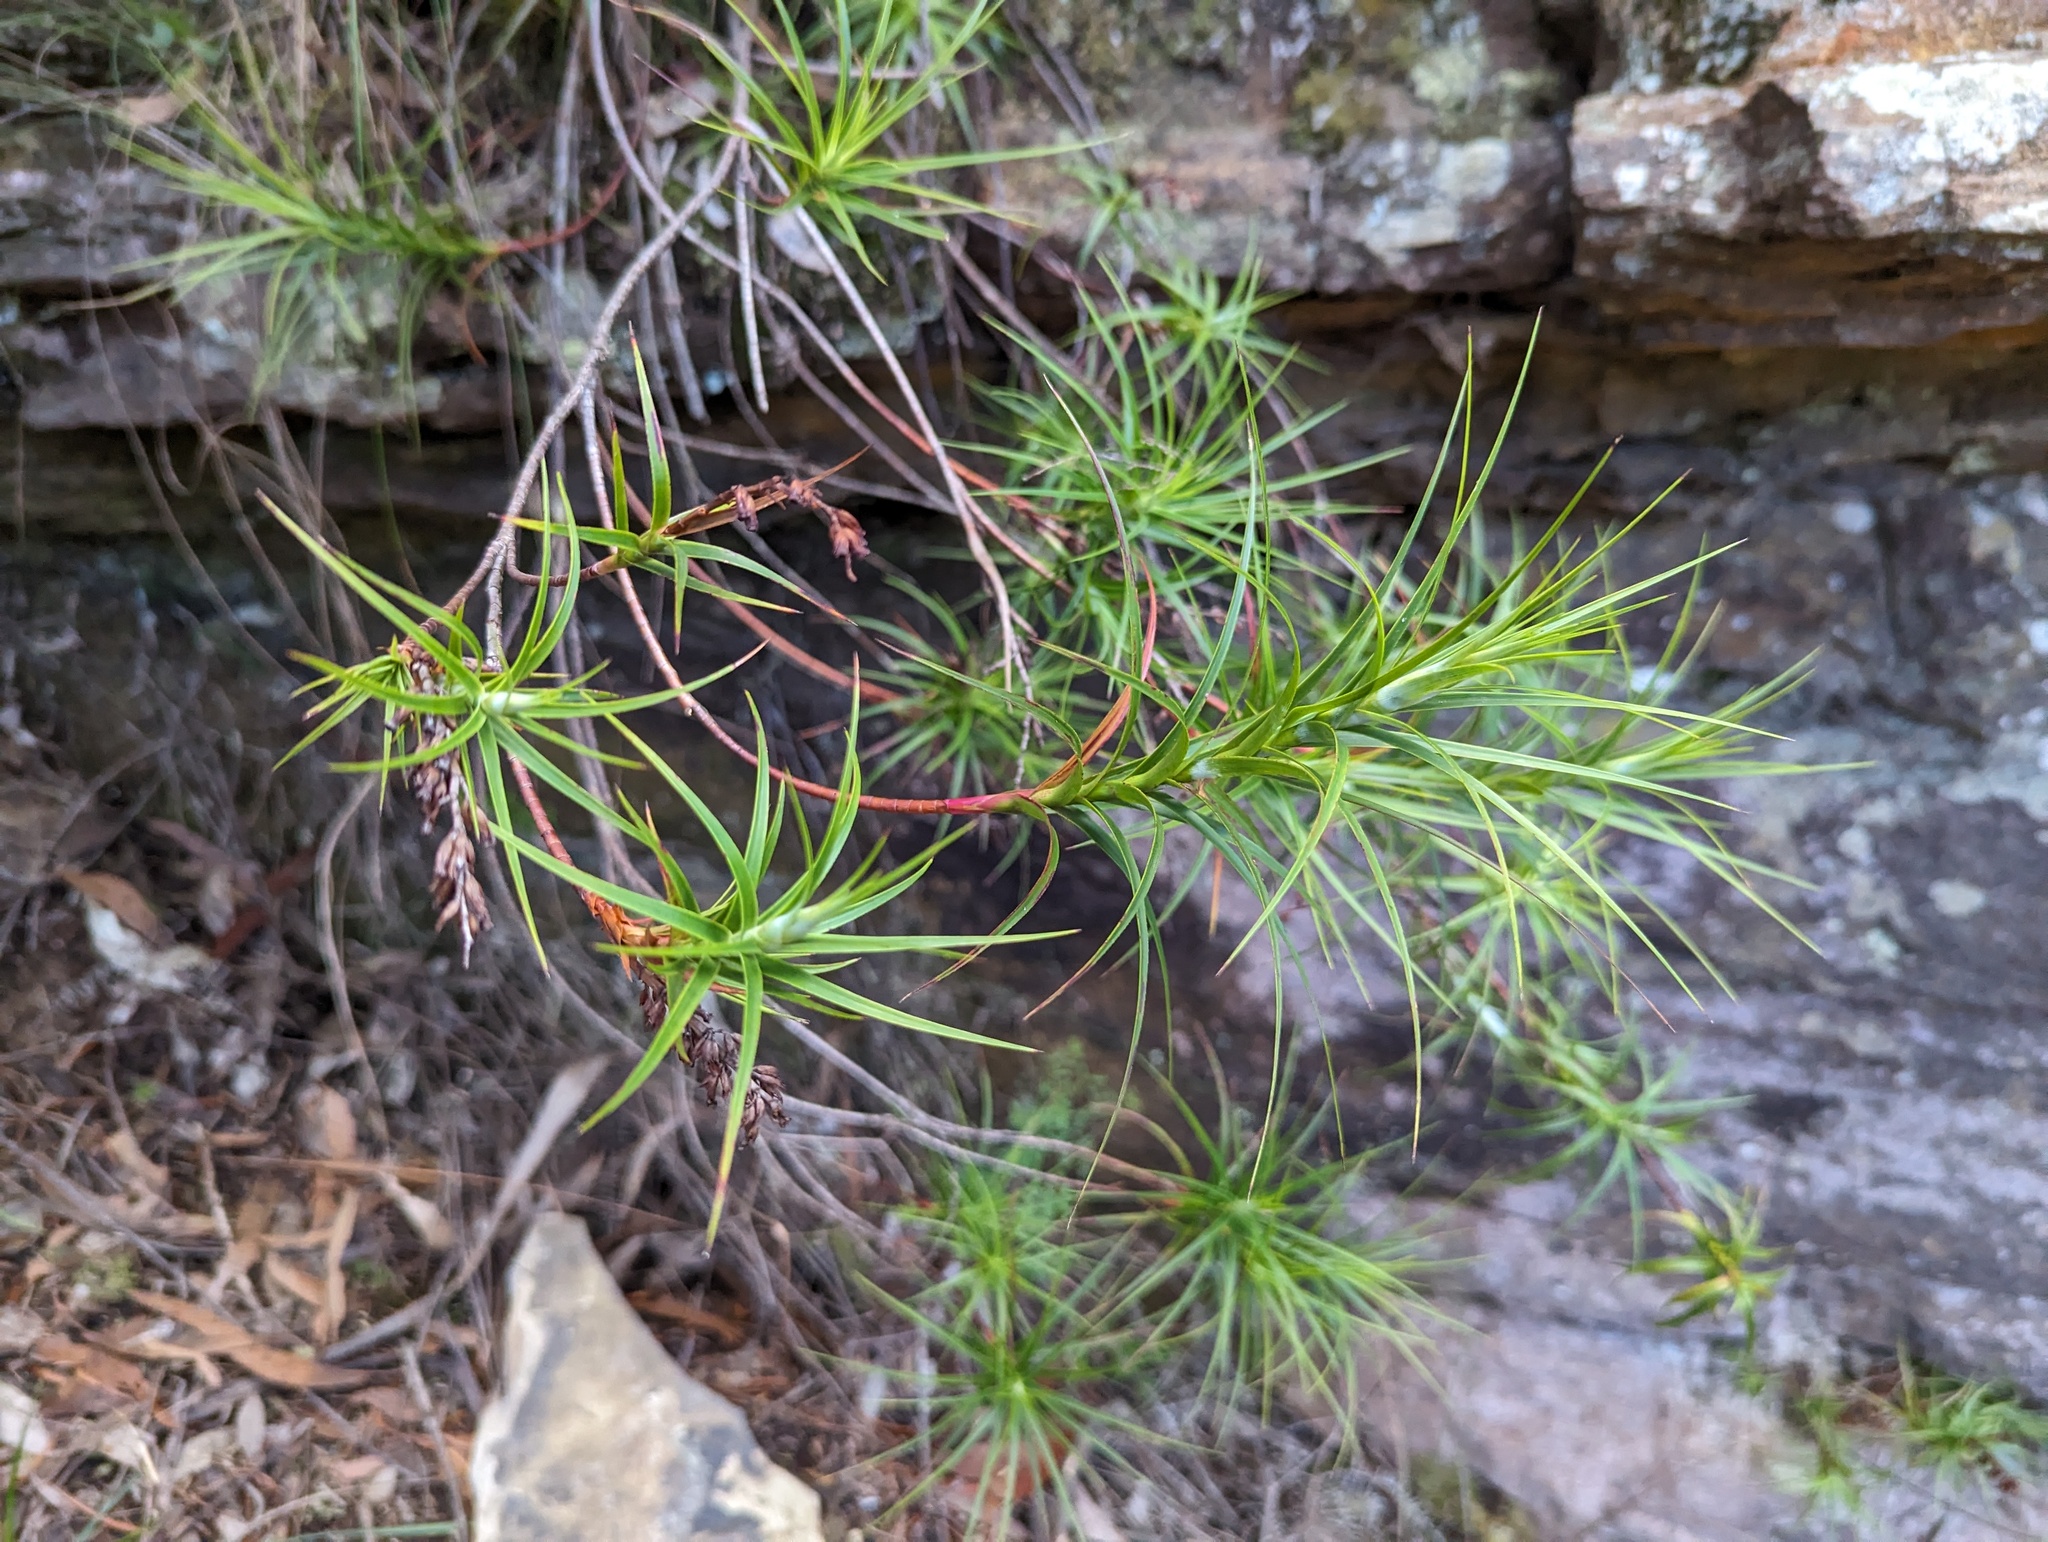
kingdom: Plantae
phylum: Tracheophyta
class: Magnoliopsida
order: Ericales
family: Ericaceae
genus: Dracophyllum
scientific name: Dracophyllum secundum
